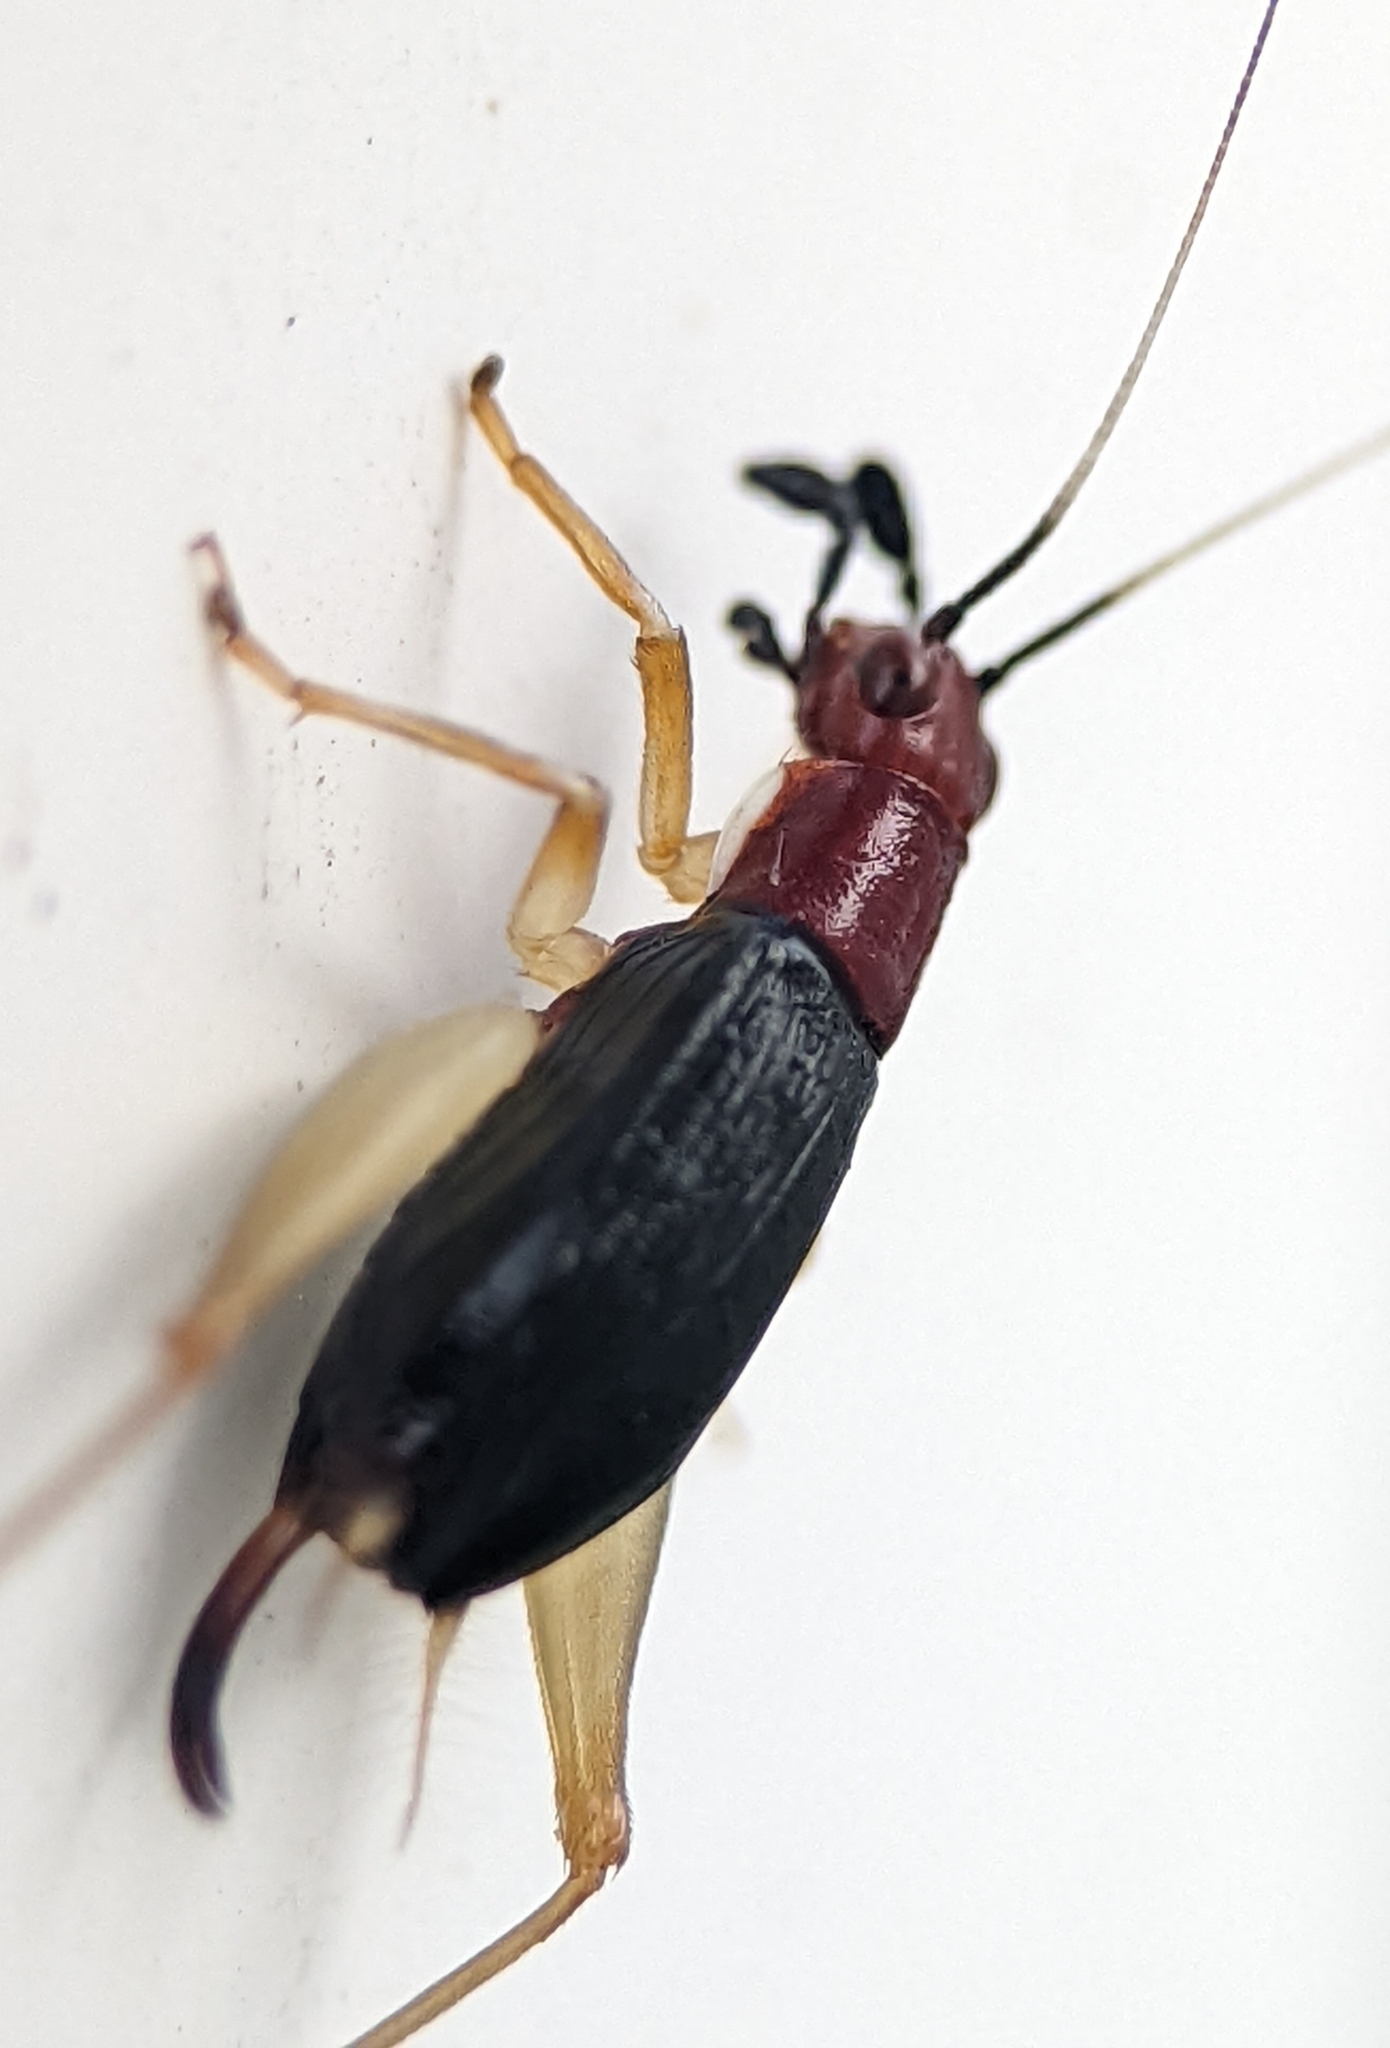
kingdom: Animalia
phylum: Arthropoda
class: Insecta
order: Orthoptera
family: Trigonidiidae
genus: Phyllopalpus
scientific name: Phyllopalpus pulchellus
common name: Handsome trig
